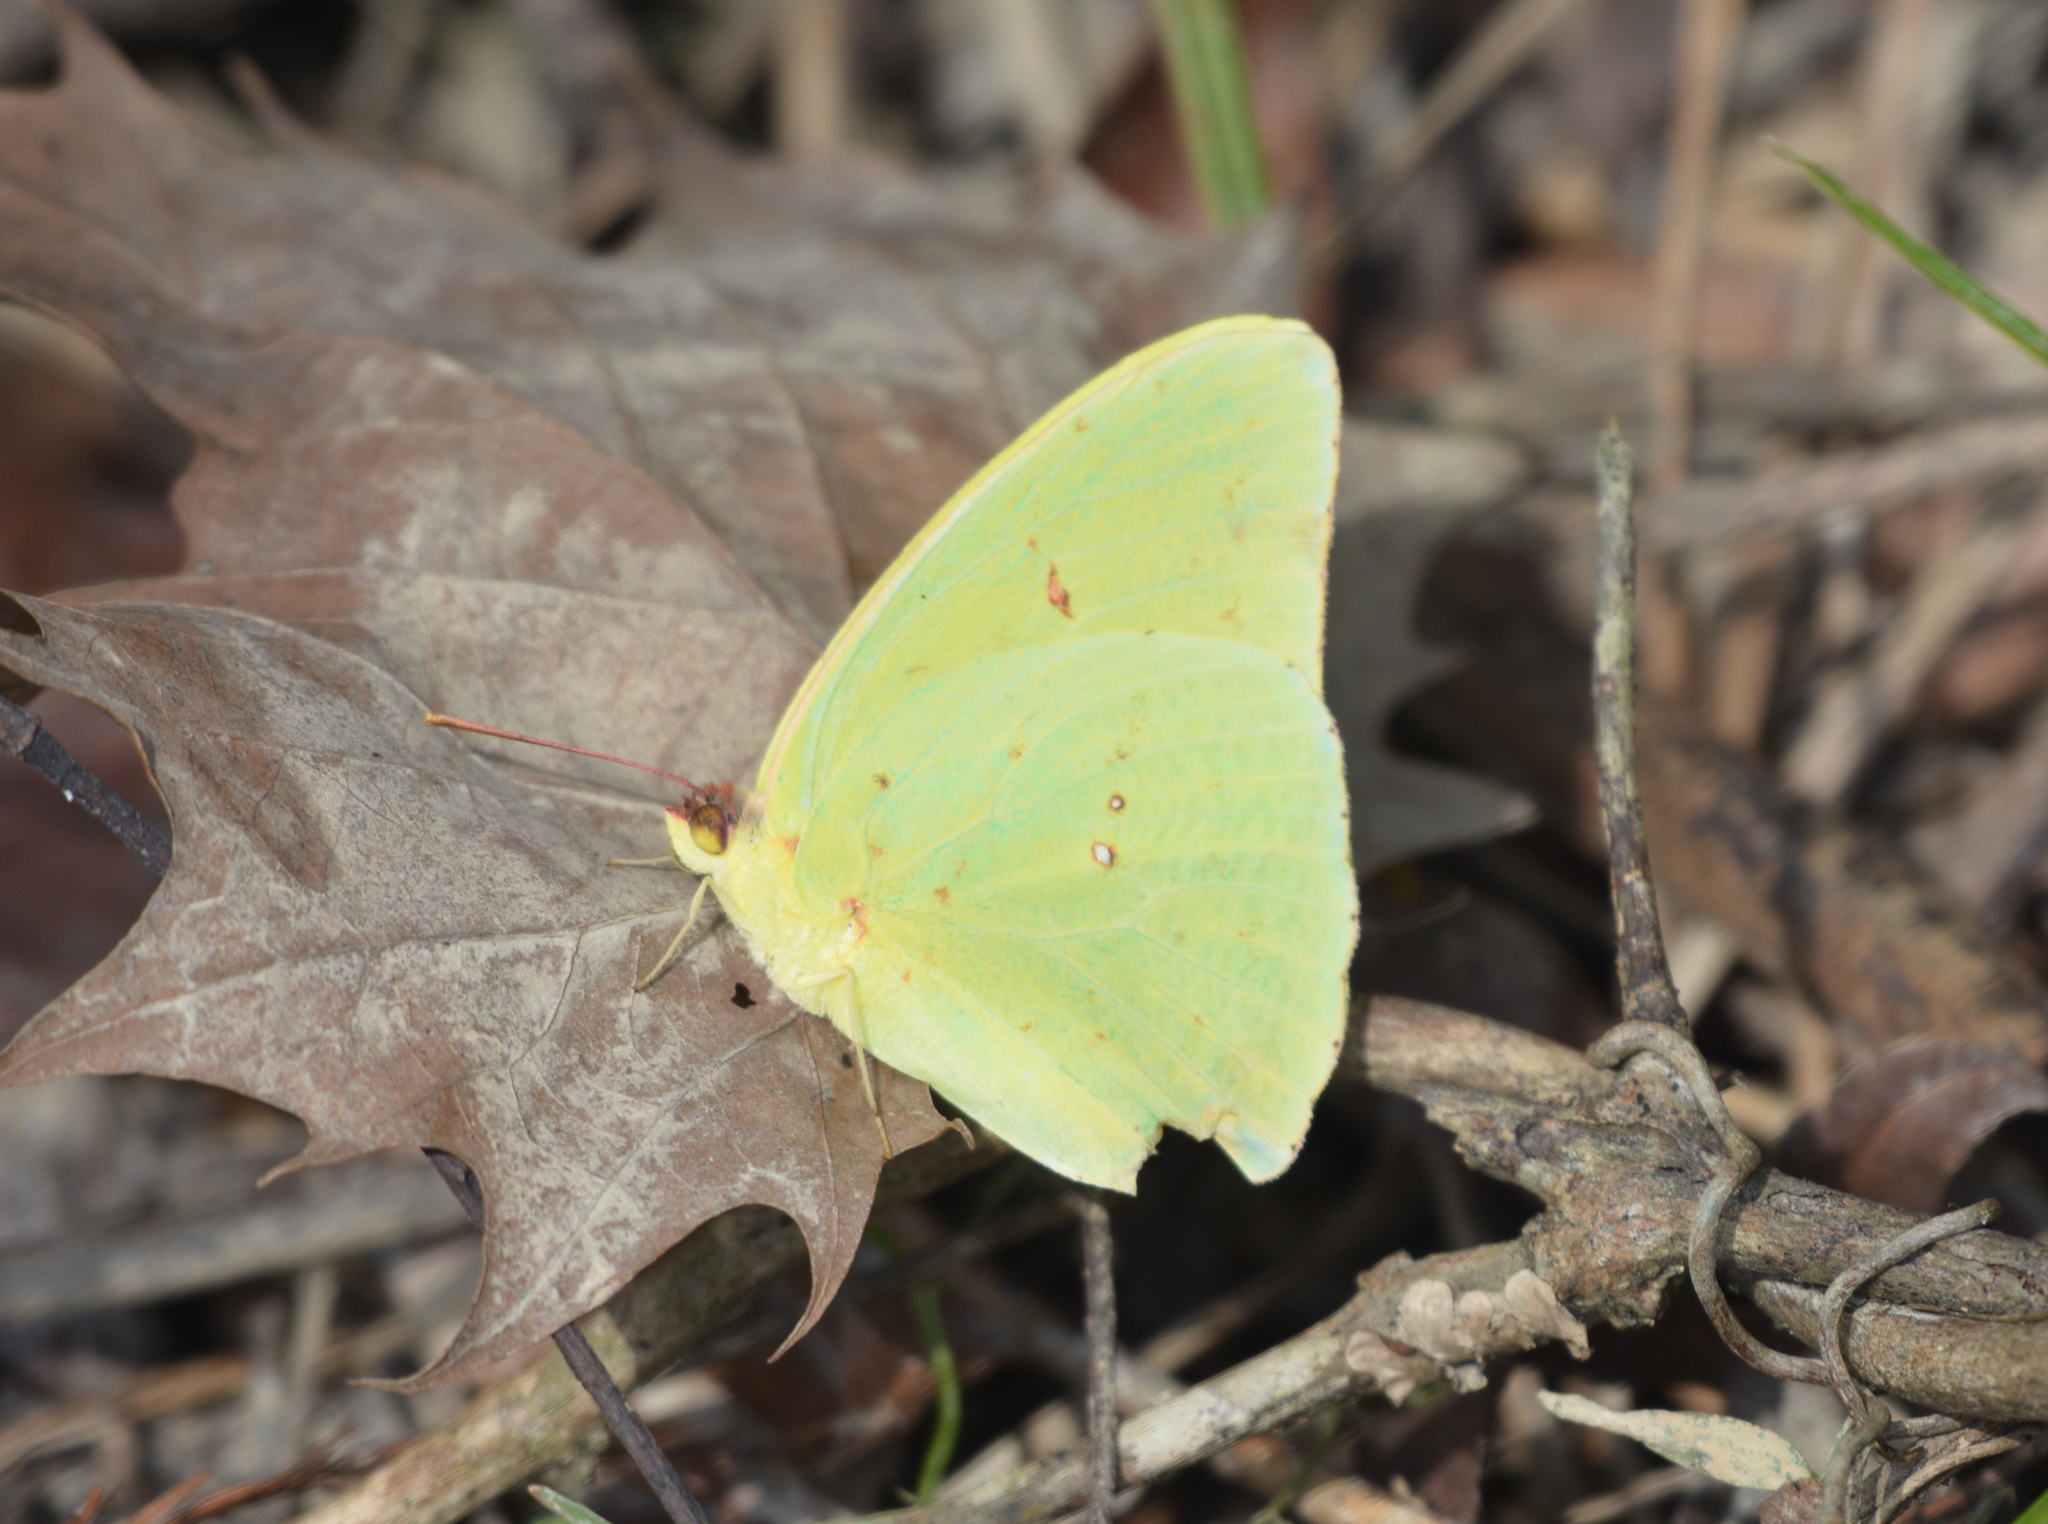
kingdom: Animalia
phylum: Arthropoda
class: Insecta
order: Lepidoptera
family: Pieridae
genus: Phoebis
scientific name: Phoebis sennae
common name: Cloudless sulphur
